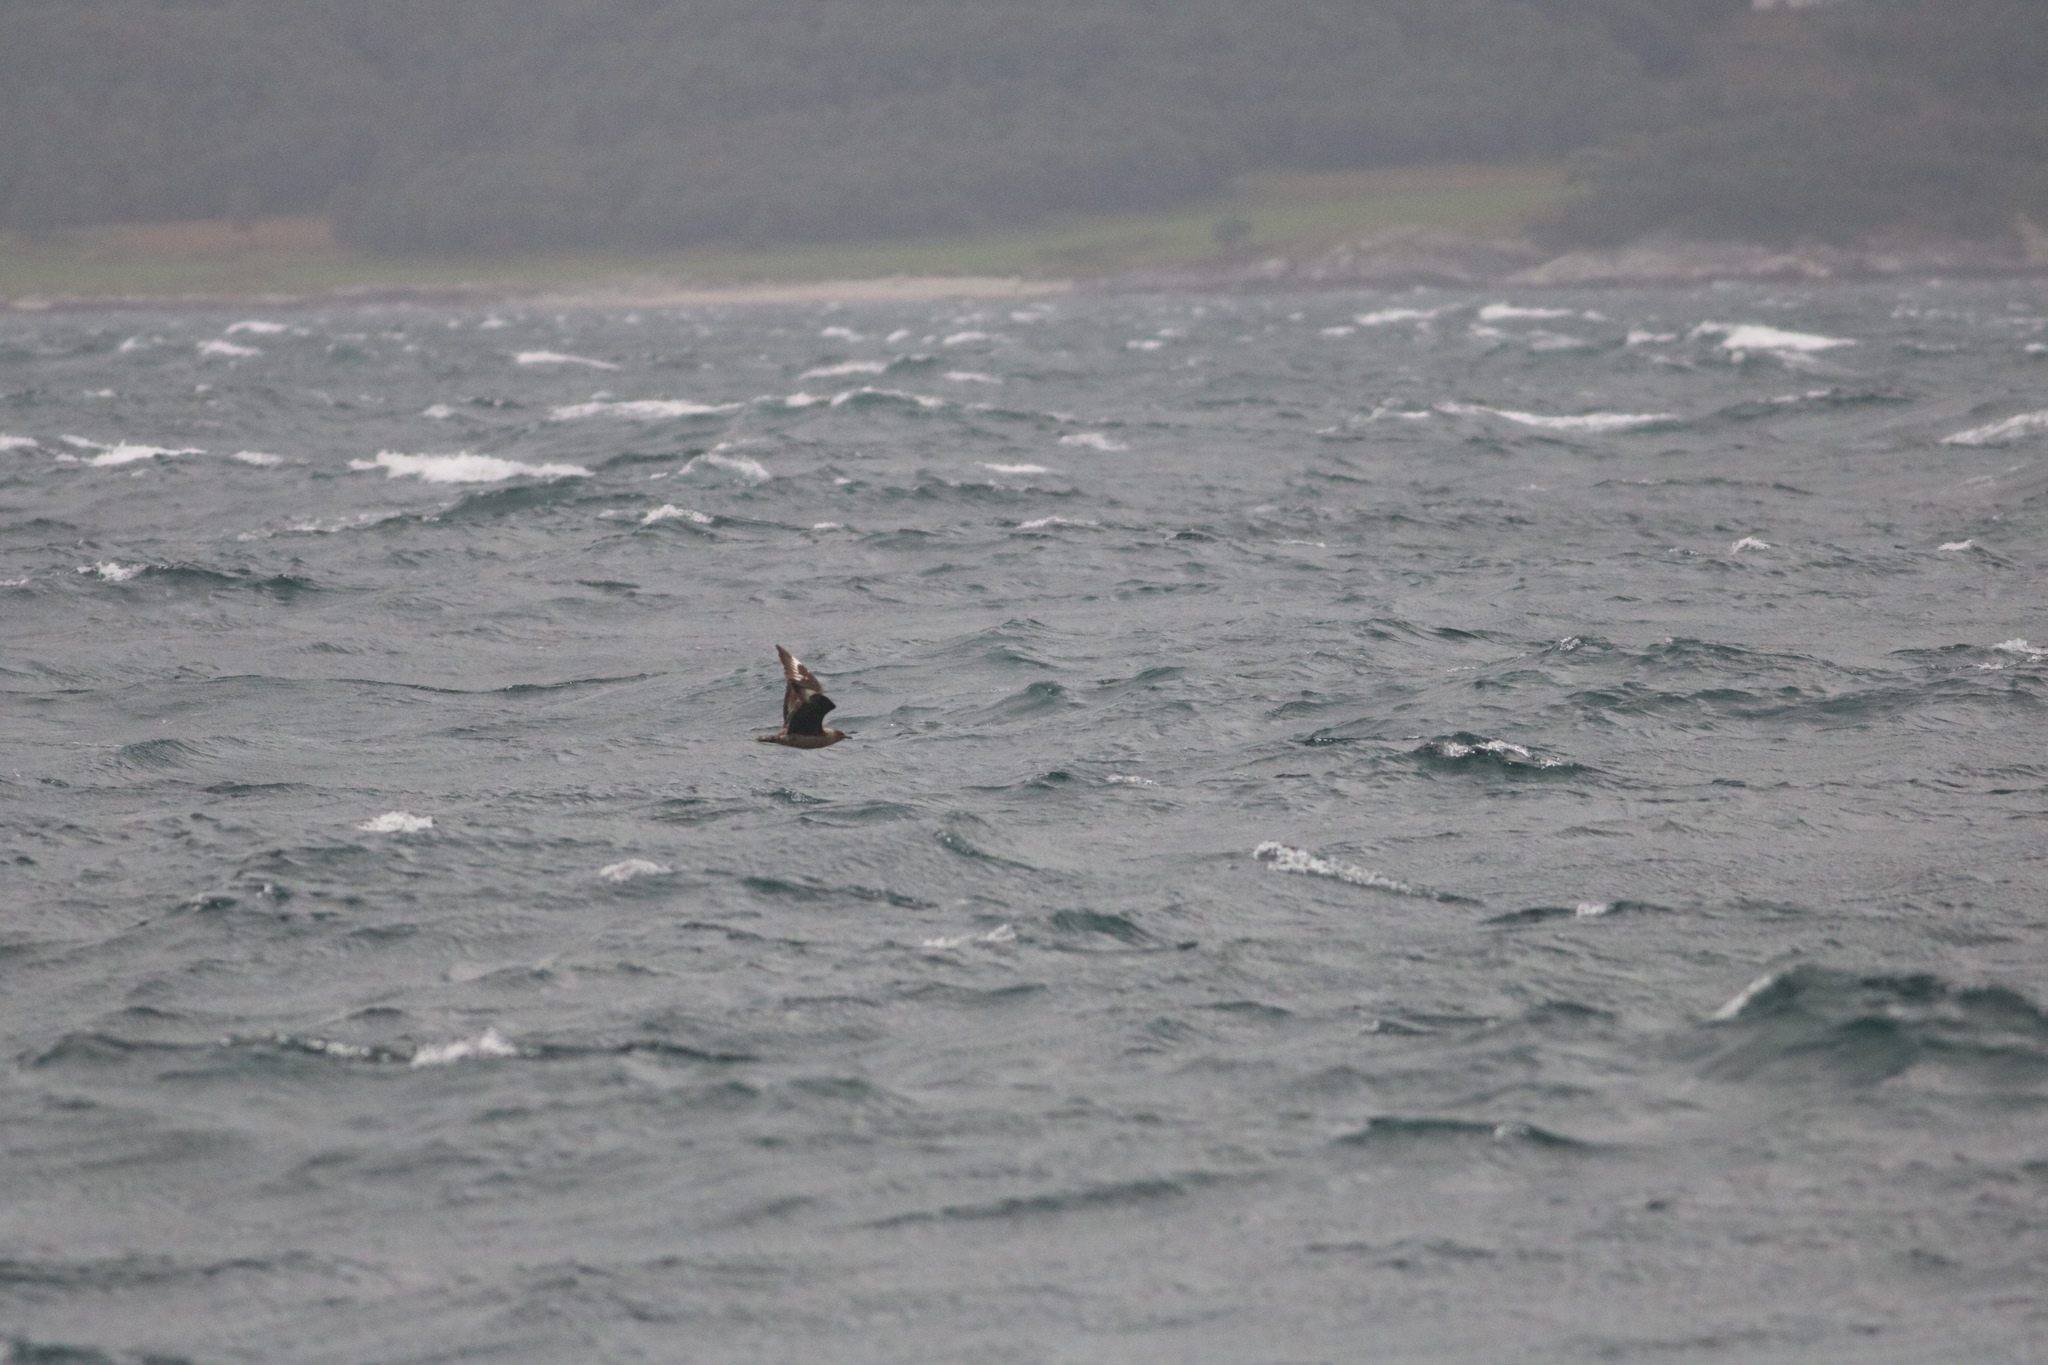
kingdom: Animalia
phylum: Chordata
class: Aves
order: Charadriiformes
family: Stercorariidae
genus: Stercorarius
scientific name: Stercorarius skua
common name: Great skua
